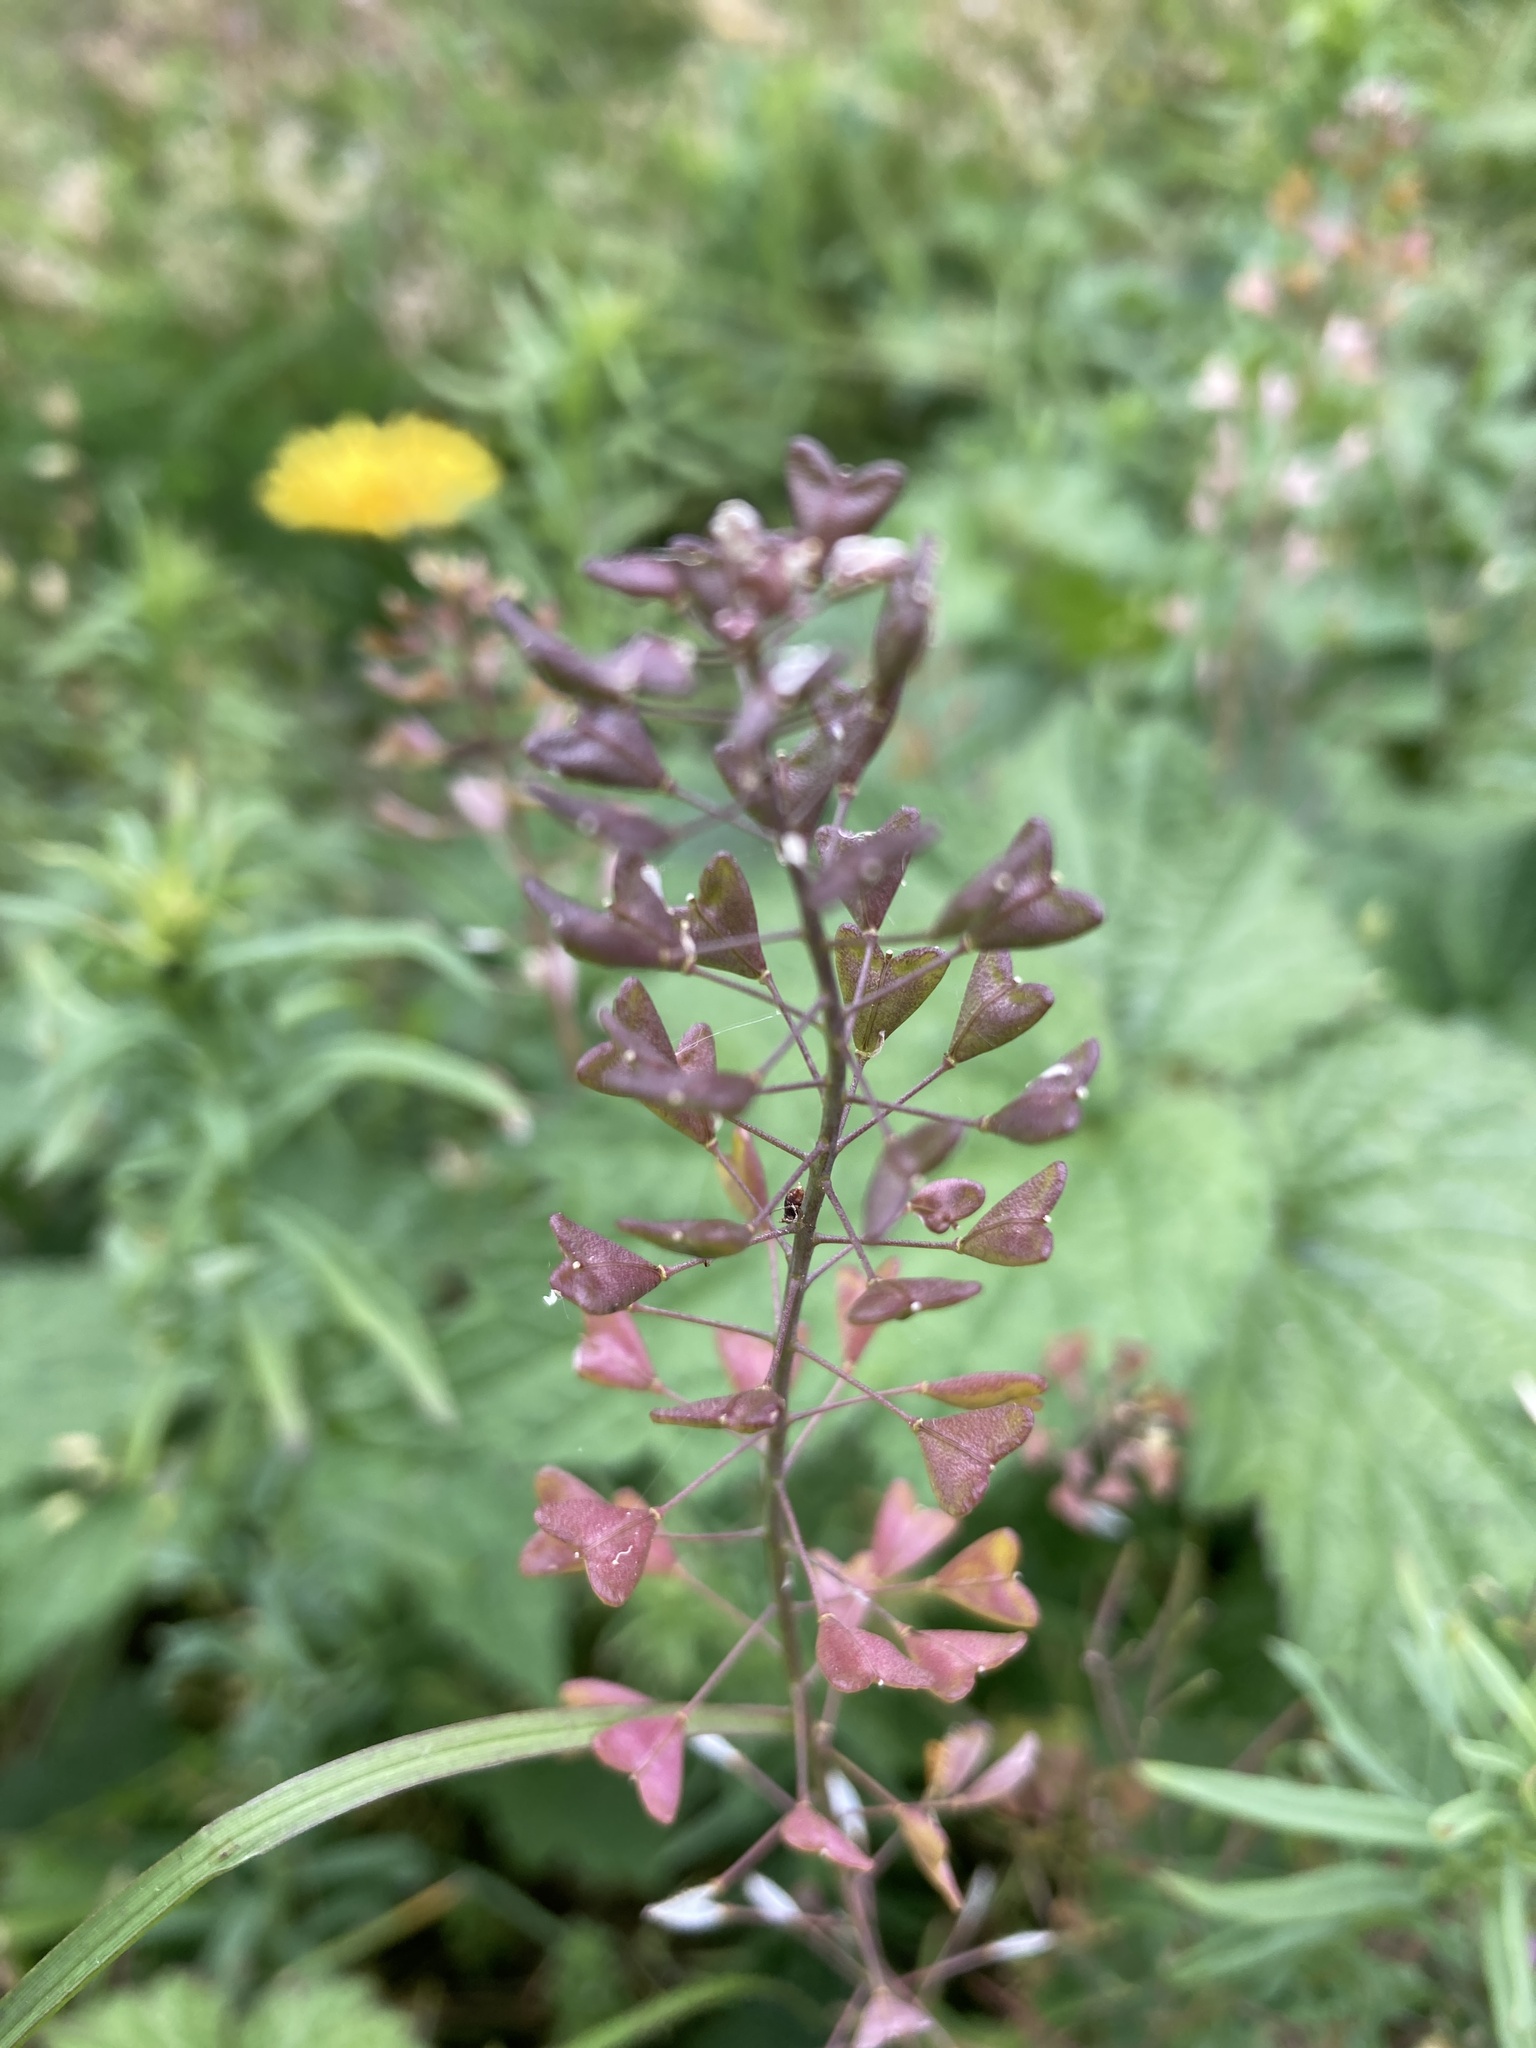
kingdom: Plantae
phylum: Tracheophyta
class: Magnoliopsida
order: Brassicales
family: Brassicaceae
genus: Capsella
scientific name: Capsella bursa-pastoris
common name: Shepherd's purse
